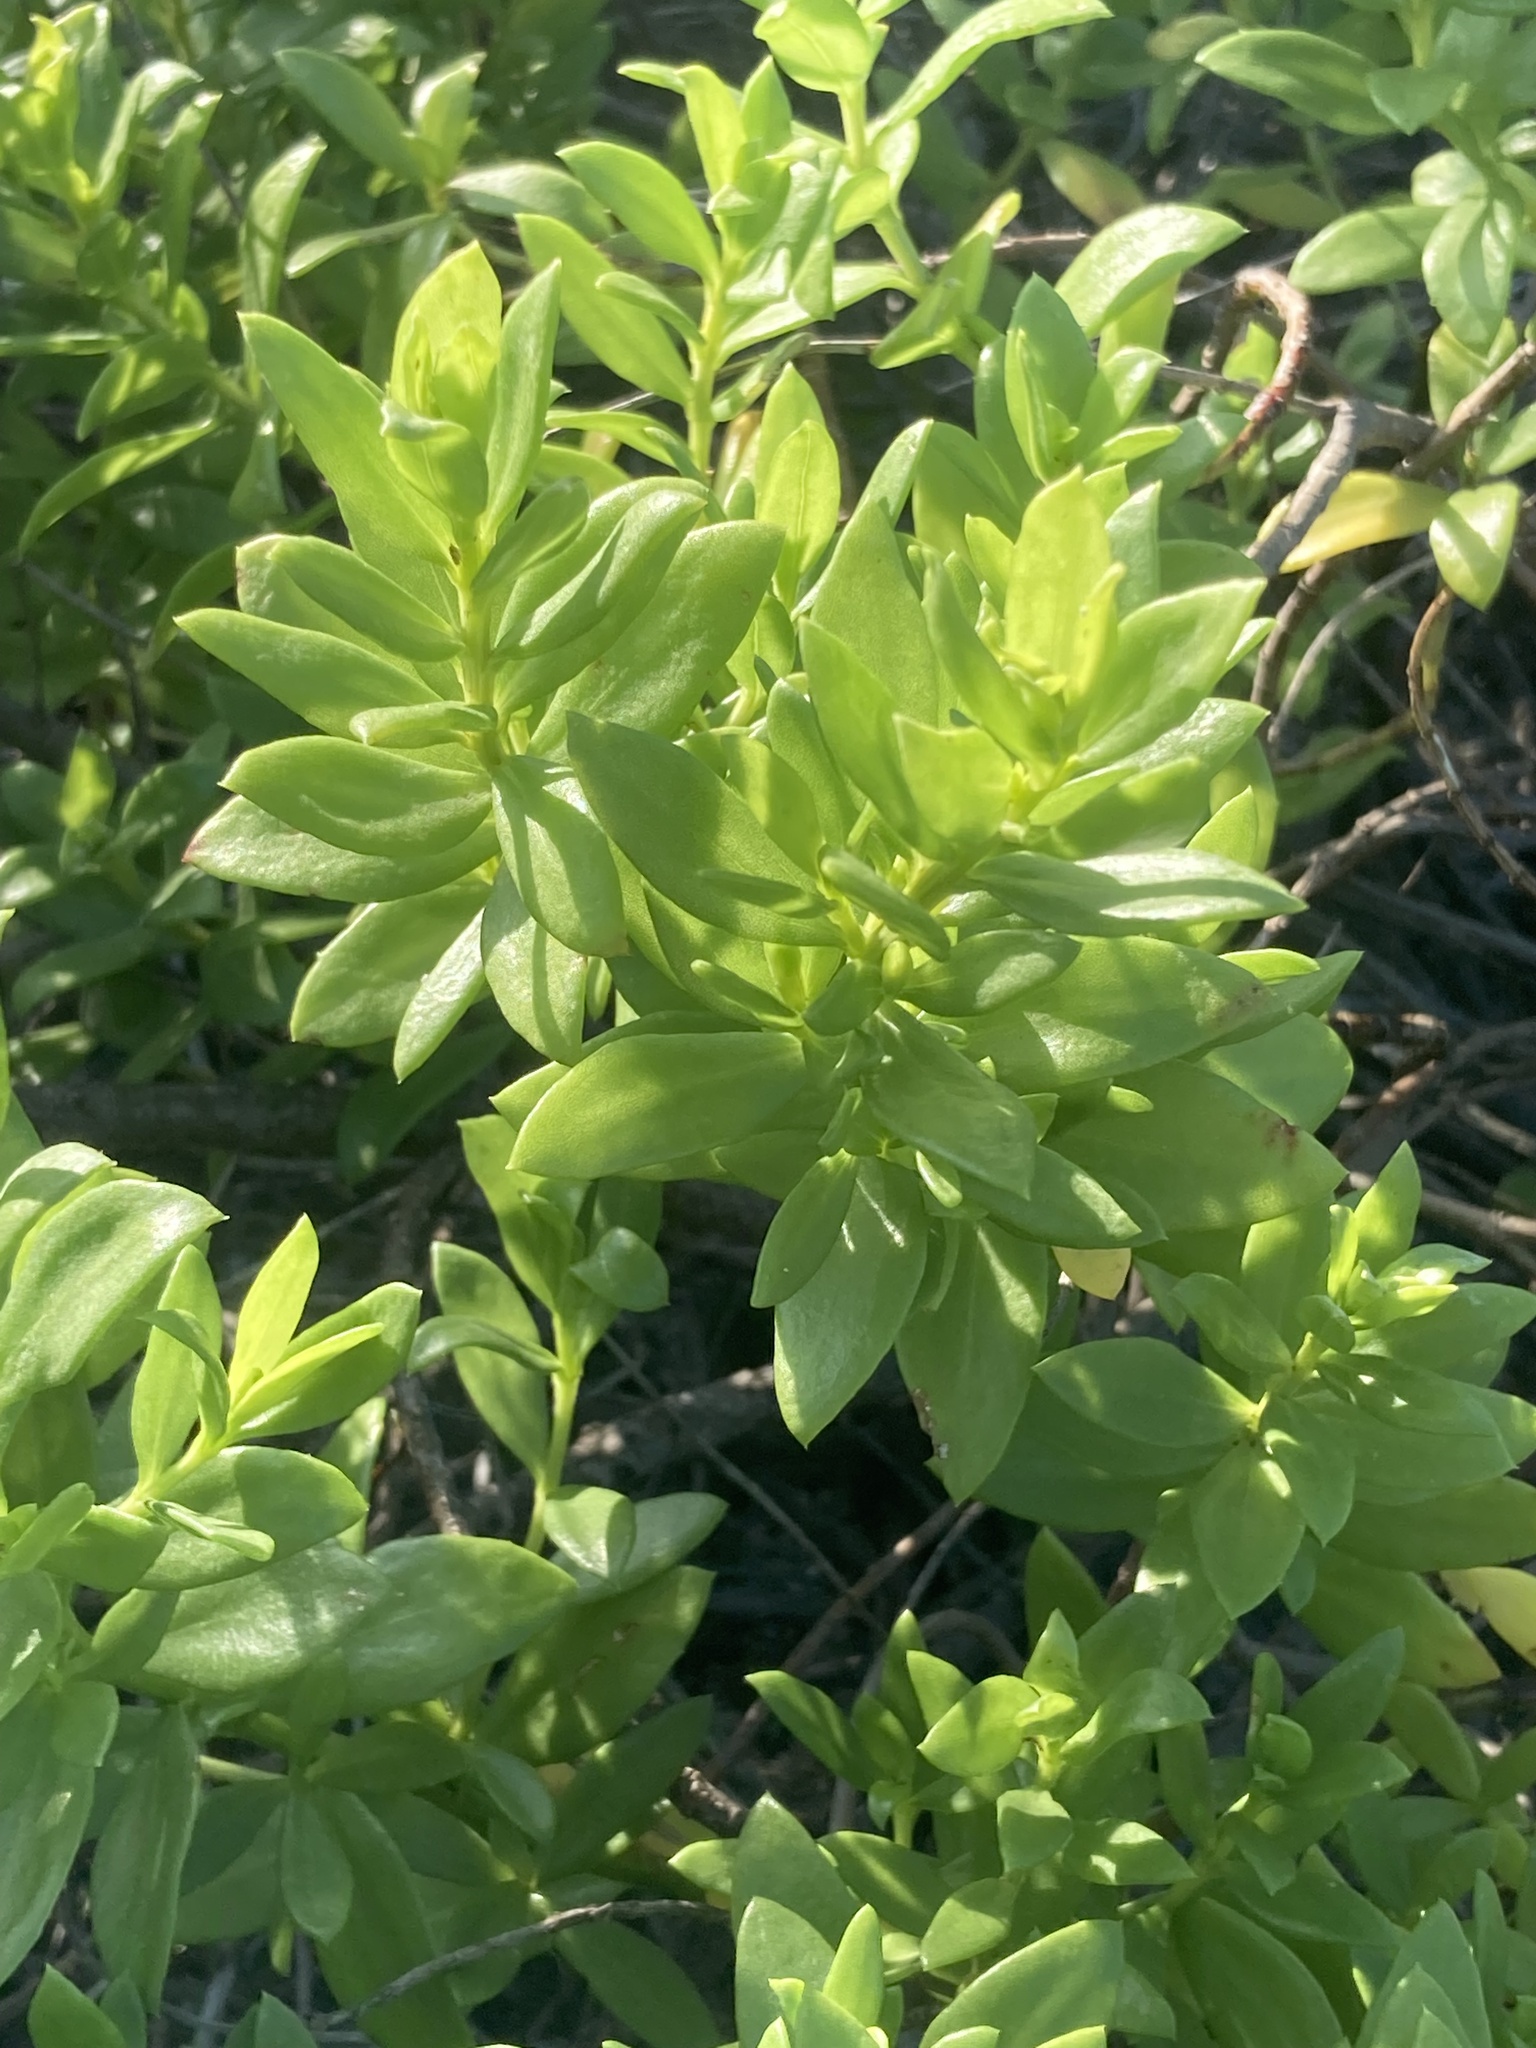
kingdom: Plantae
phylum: Tracheophyta
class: Magnoliopsida
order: Asterales
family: Asteraceae
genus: Iva
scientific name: Iva imbricata
